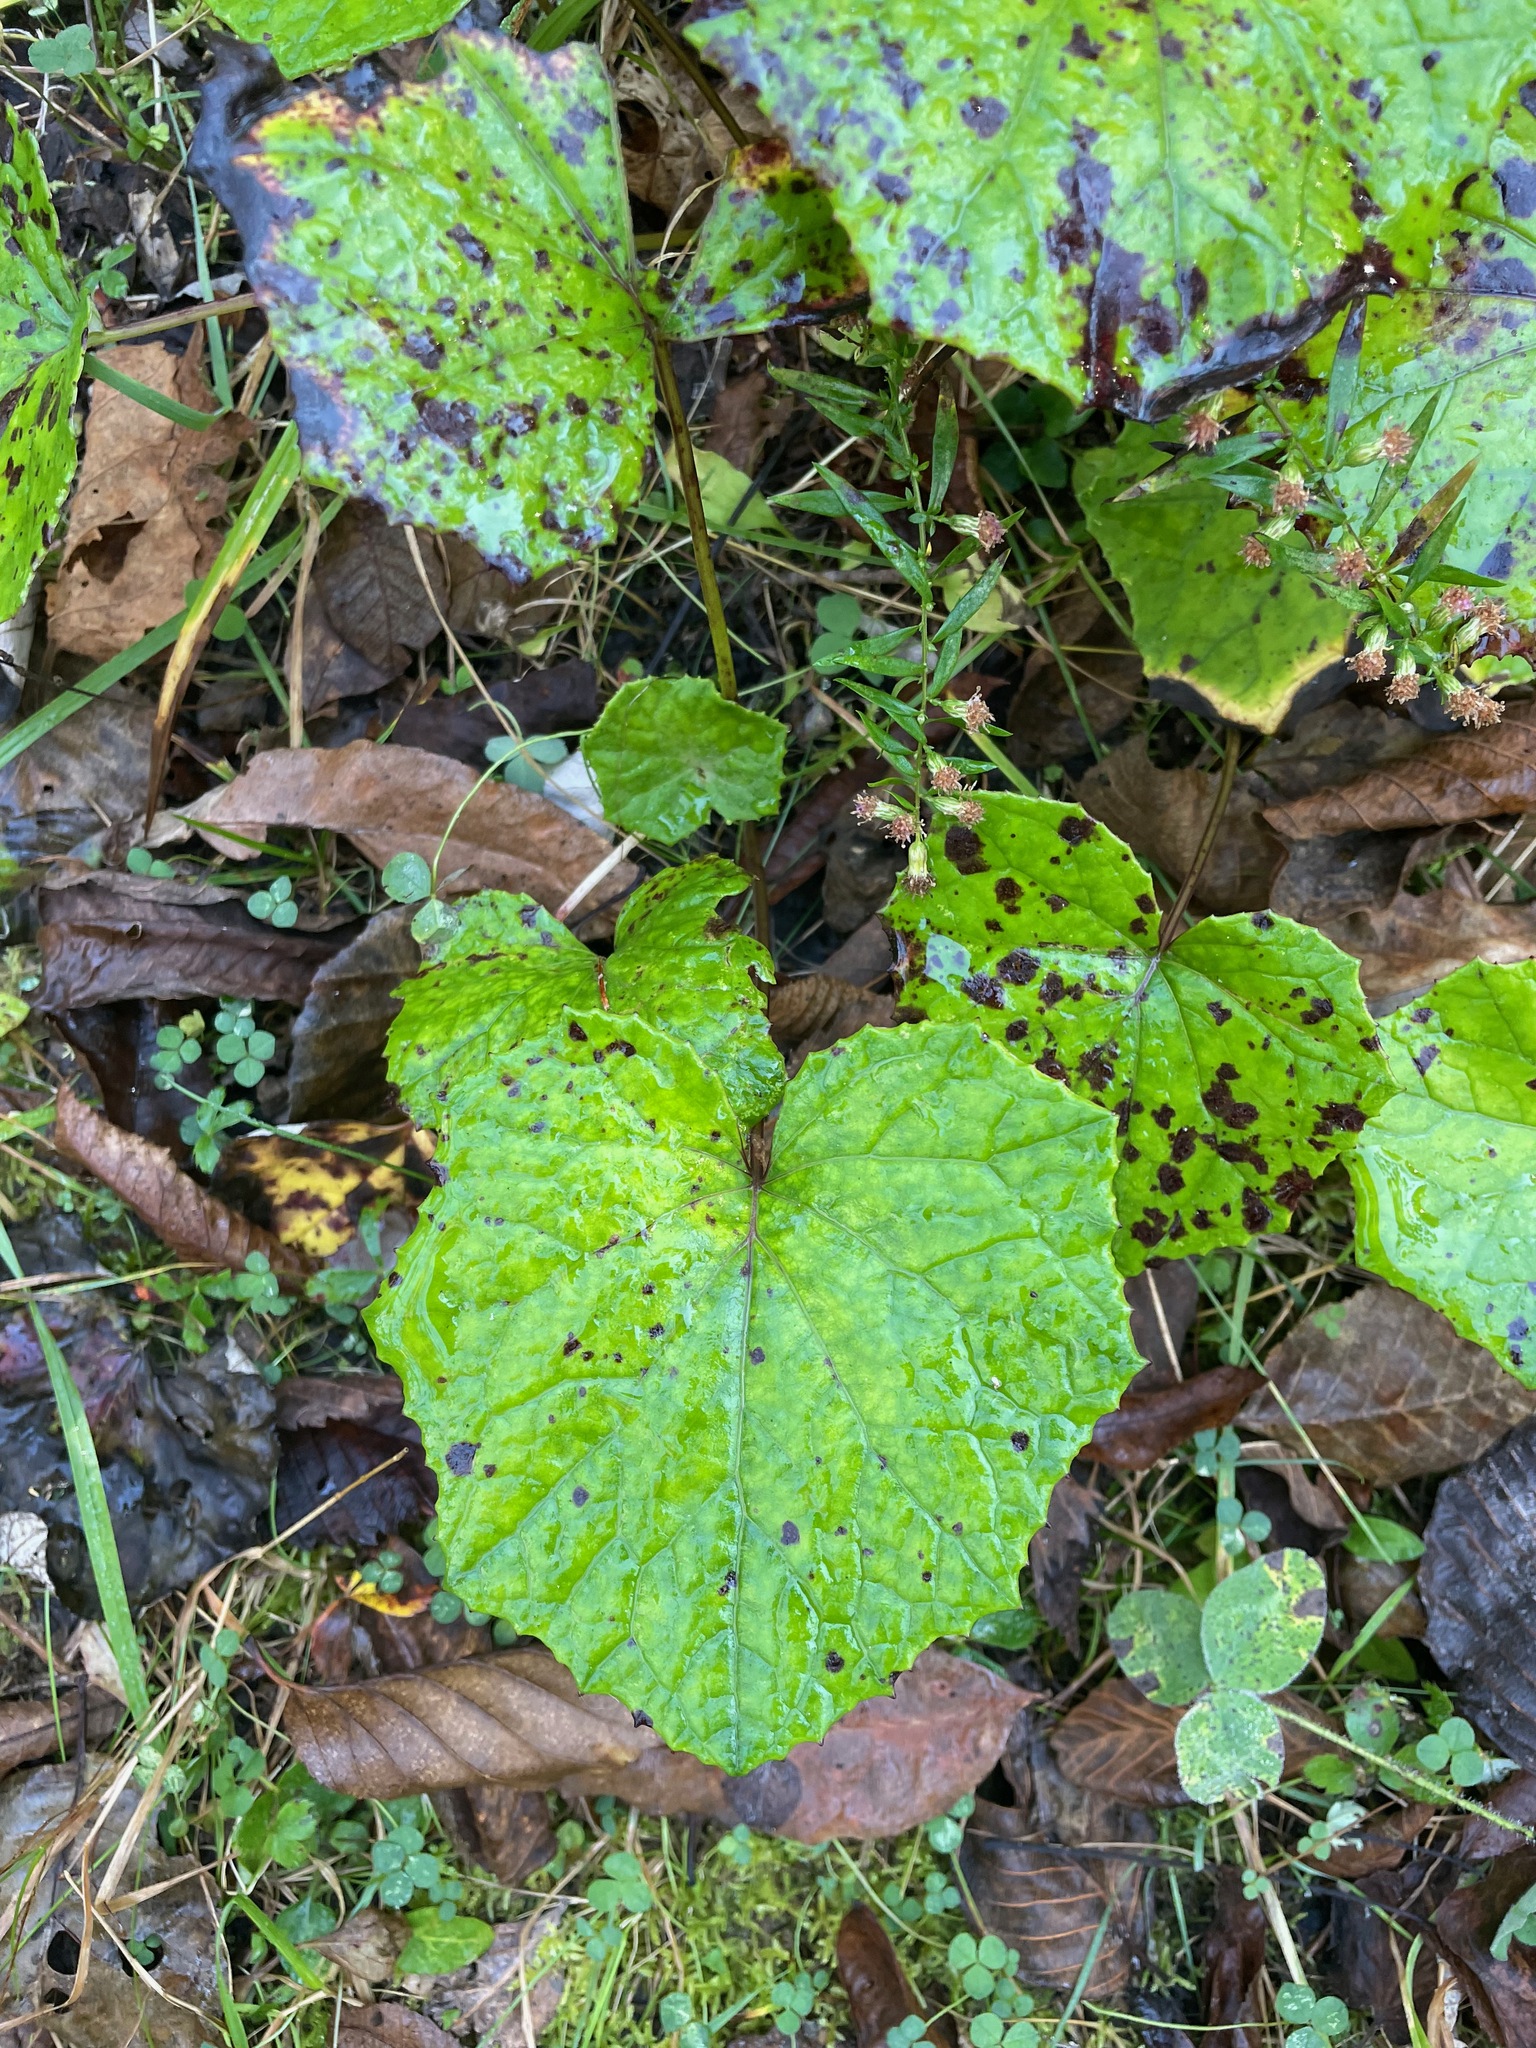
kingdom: Plantae
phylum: Tracheophyta
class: Magnoliopsida
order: Asterales
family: Asteraceae
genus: Tussilago
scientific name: Tussilago farfara
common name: Coltsfoot
